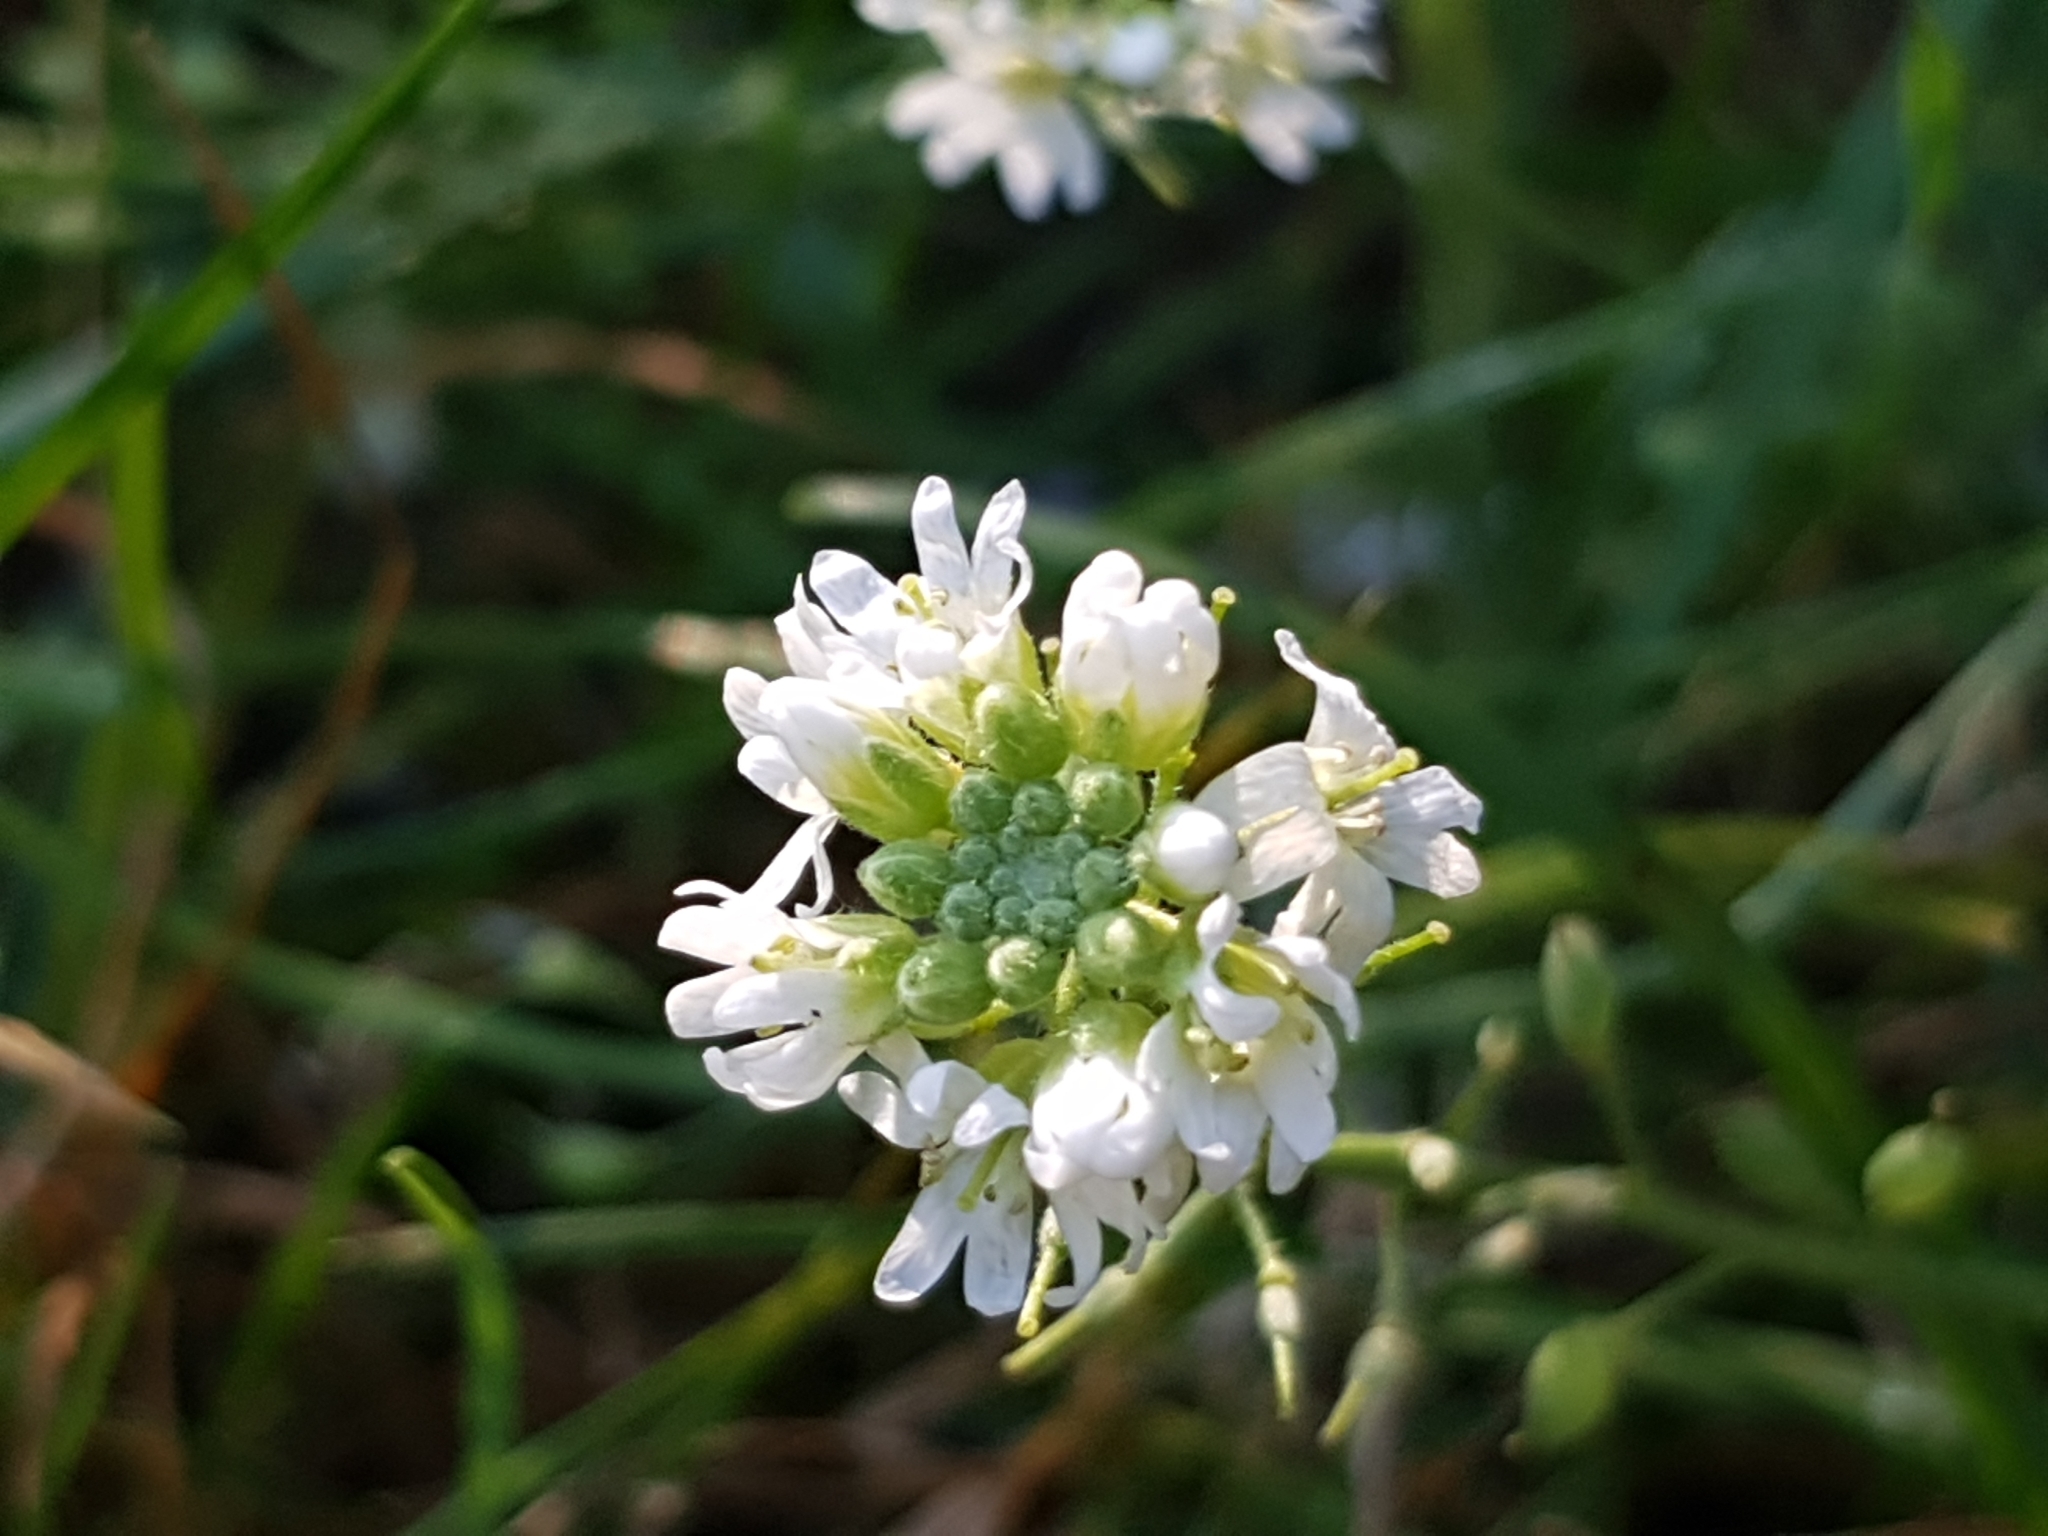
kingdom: Plantae
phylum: Tracheophyta
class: Magnoliopsida
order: Brassicales
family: Brassicaceae
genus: Berteroa
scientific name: Berteroa incana
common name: Hoary alison
